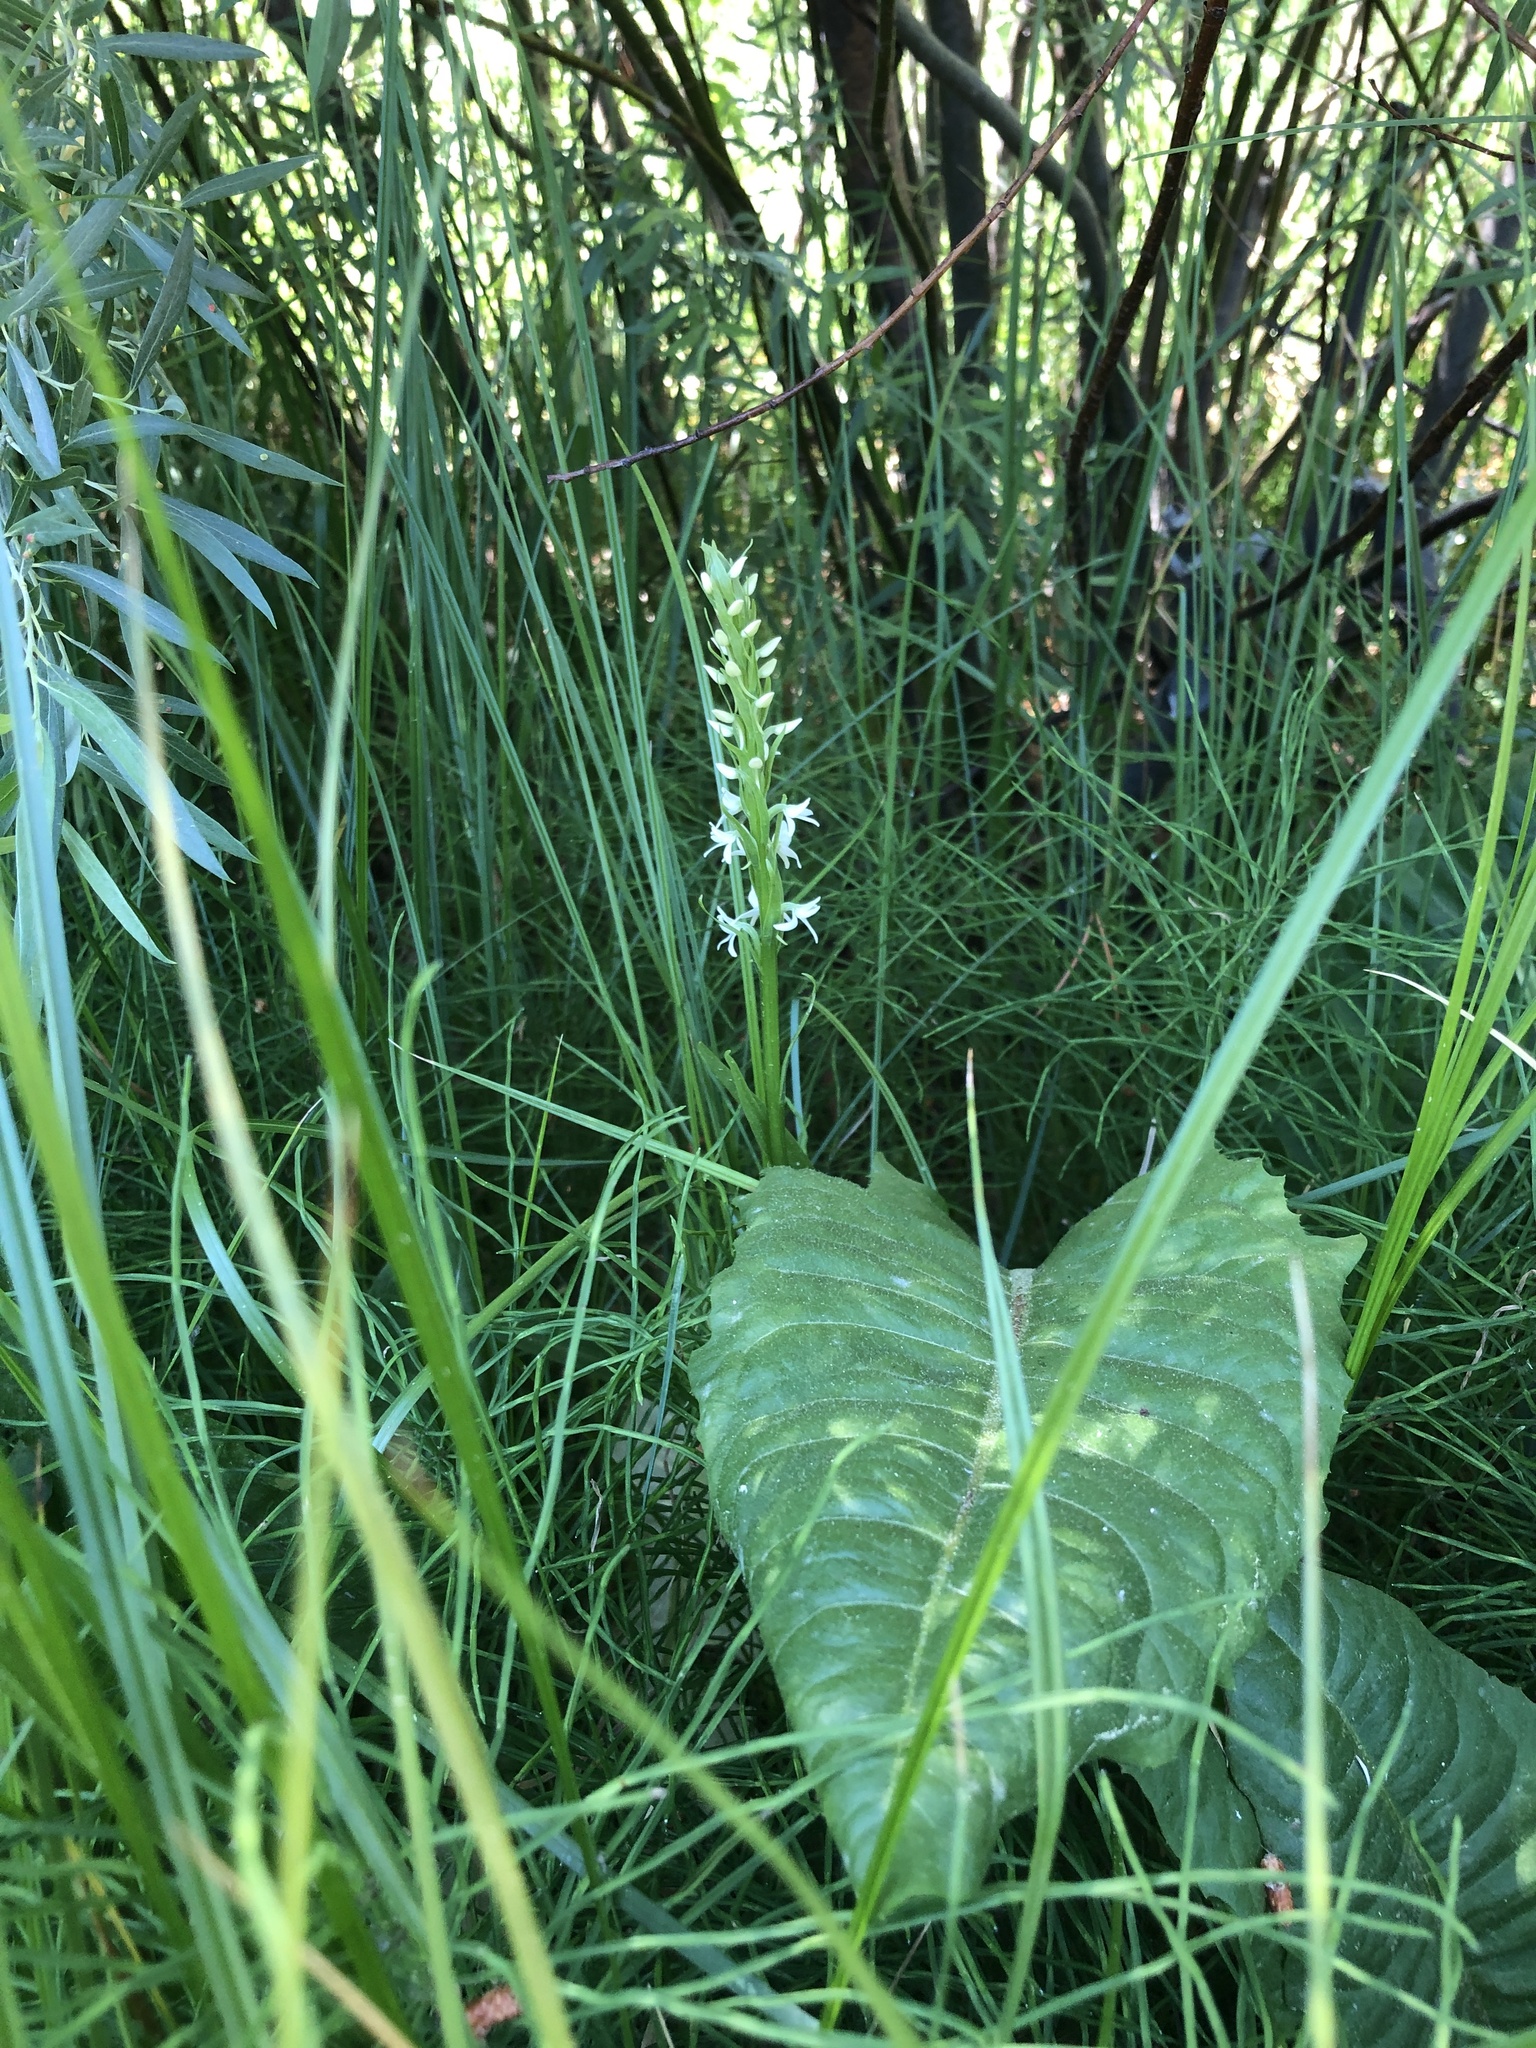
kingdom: Plantae
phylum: Tracheophyta
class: Liliopsida
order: Asparagales
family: Orchidaceae
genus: Platanthera
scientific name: Platanthera dilatata
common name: Bog candles
